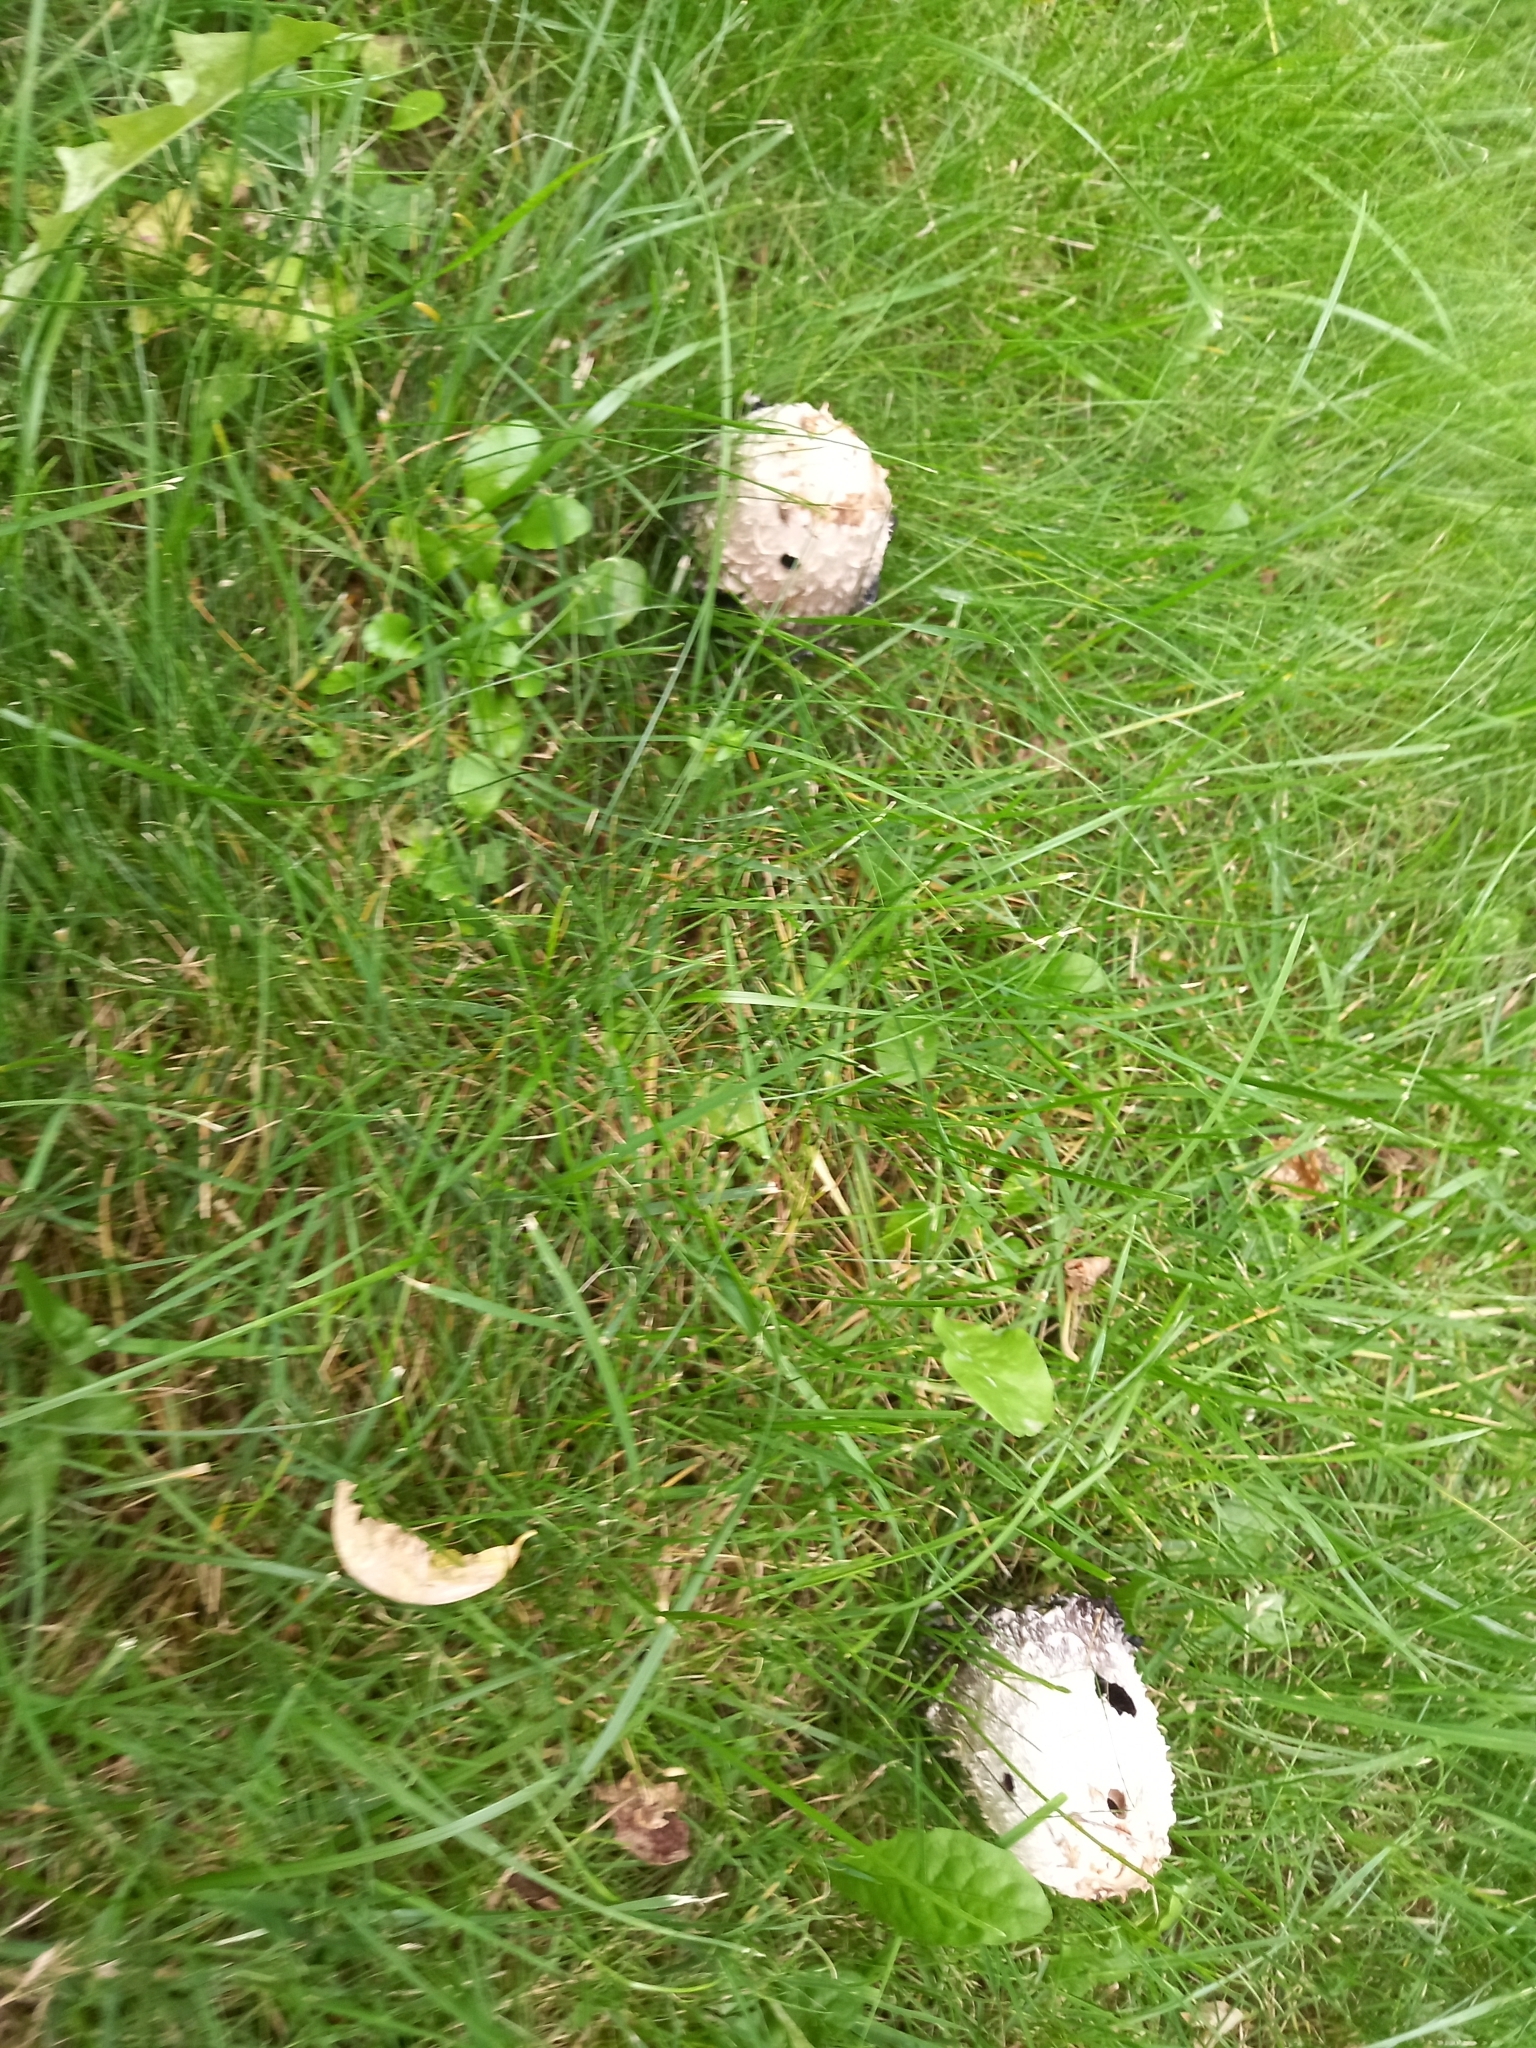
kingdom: Fungi
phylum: Basidiomycota
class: Agaricomycetes
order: Agaricales
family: Agaricaceae
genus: Coprinus
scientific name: Coprinus comatus
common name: Lawyer's wig
